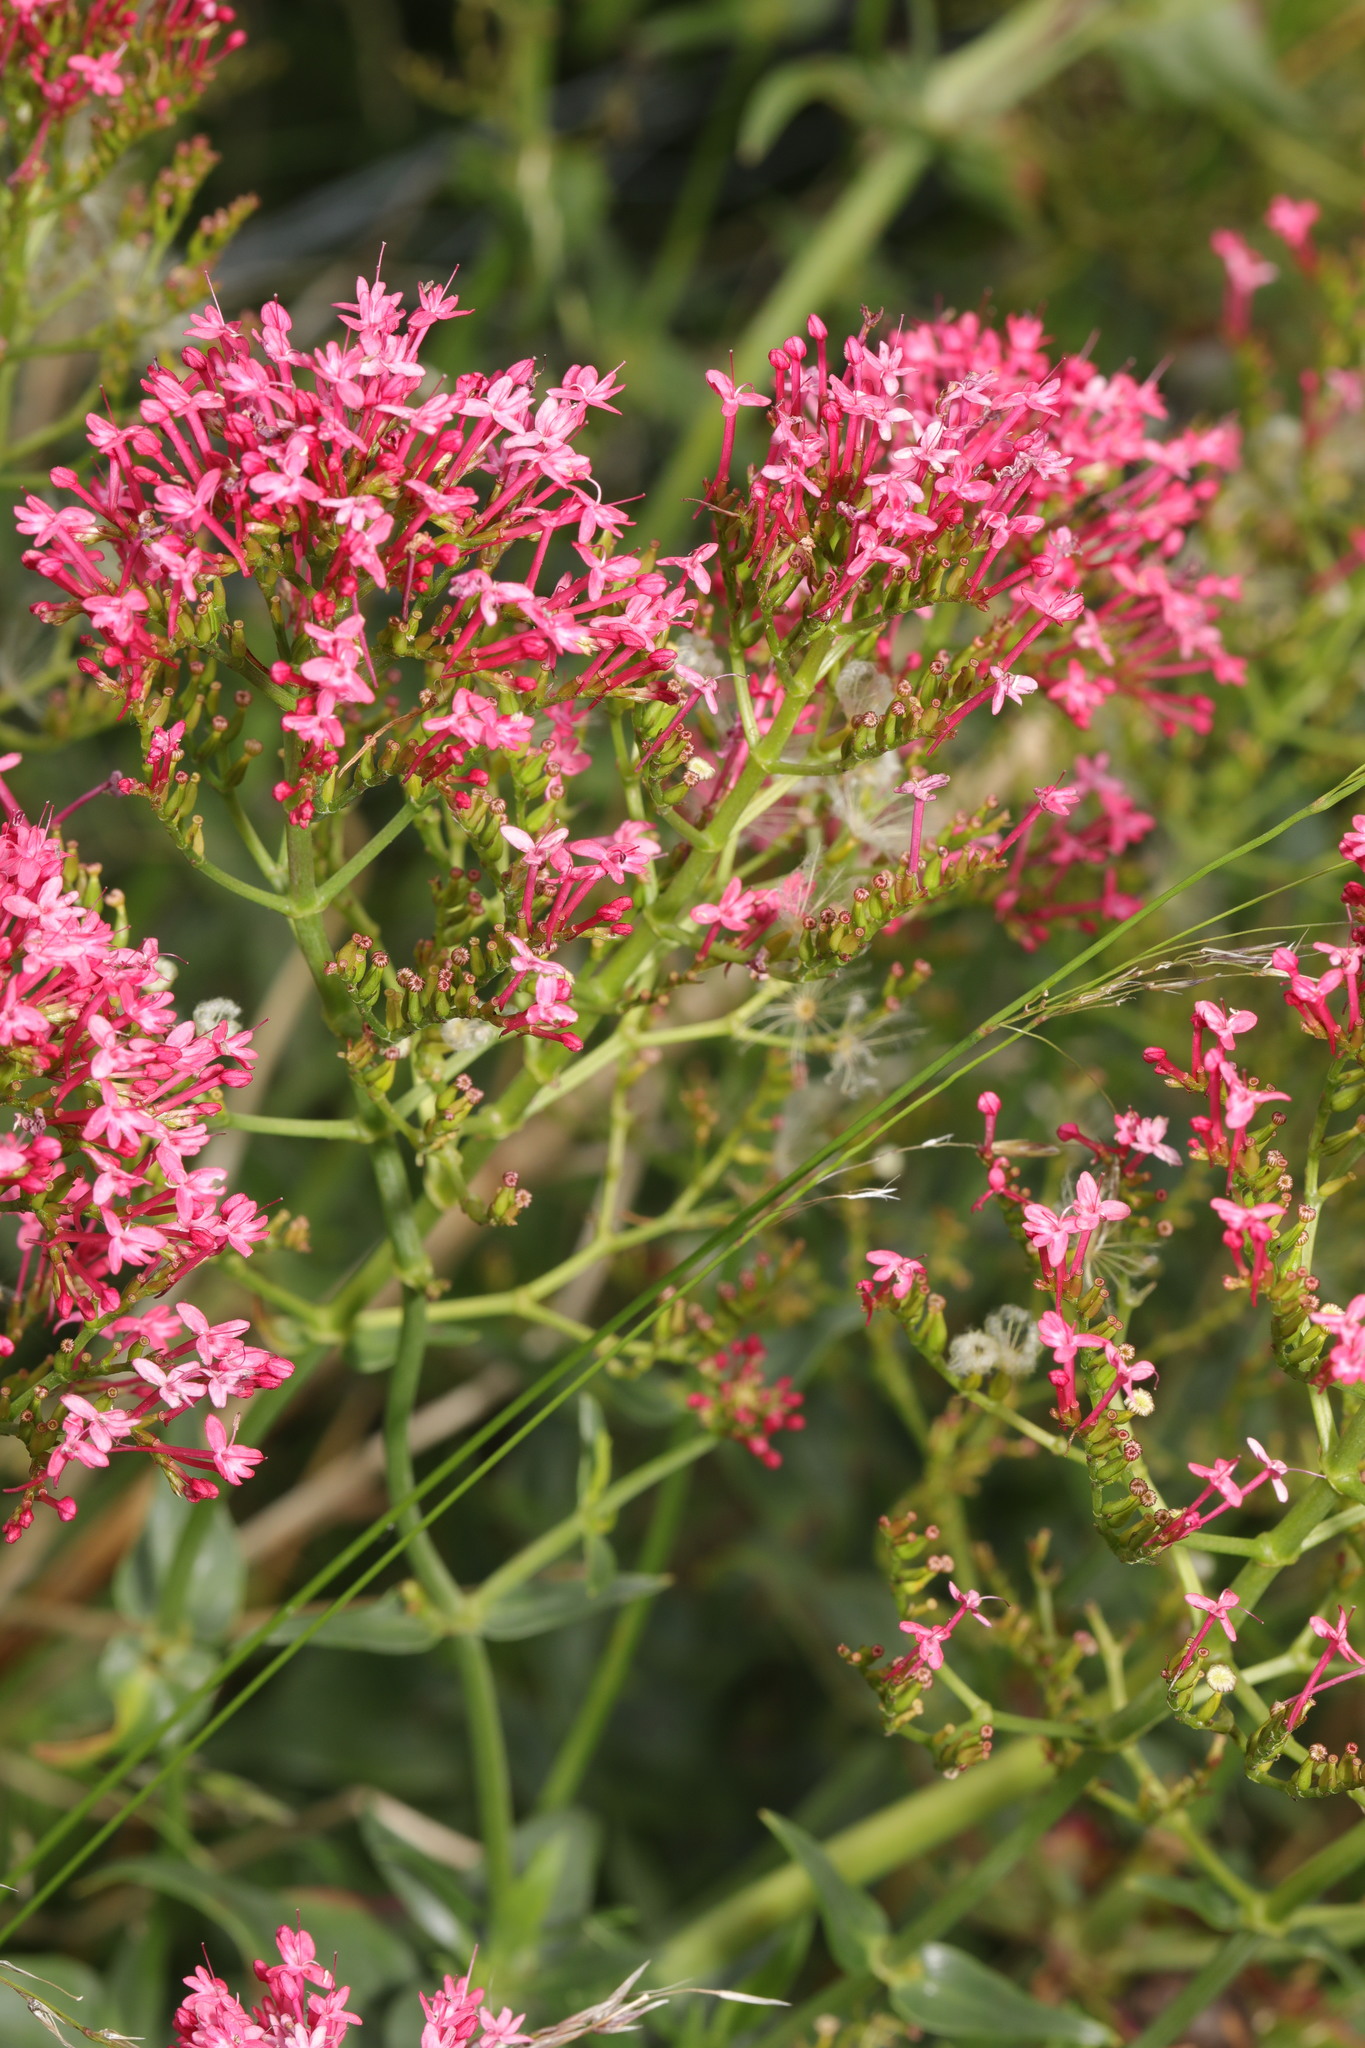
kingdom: Plantae
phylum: Tracheophyta
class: Magnoliopsida
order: Dipsacales
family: Caprifoliaceae
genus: Centranthus
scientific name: Centranthus ruber
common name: Red valerian
